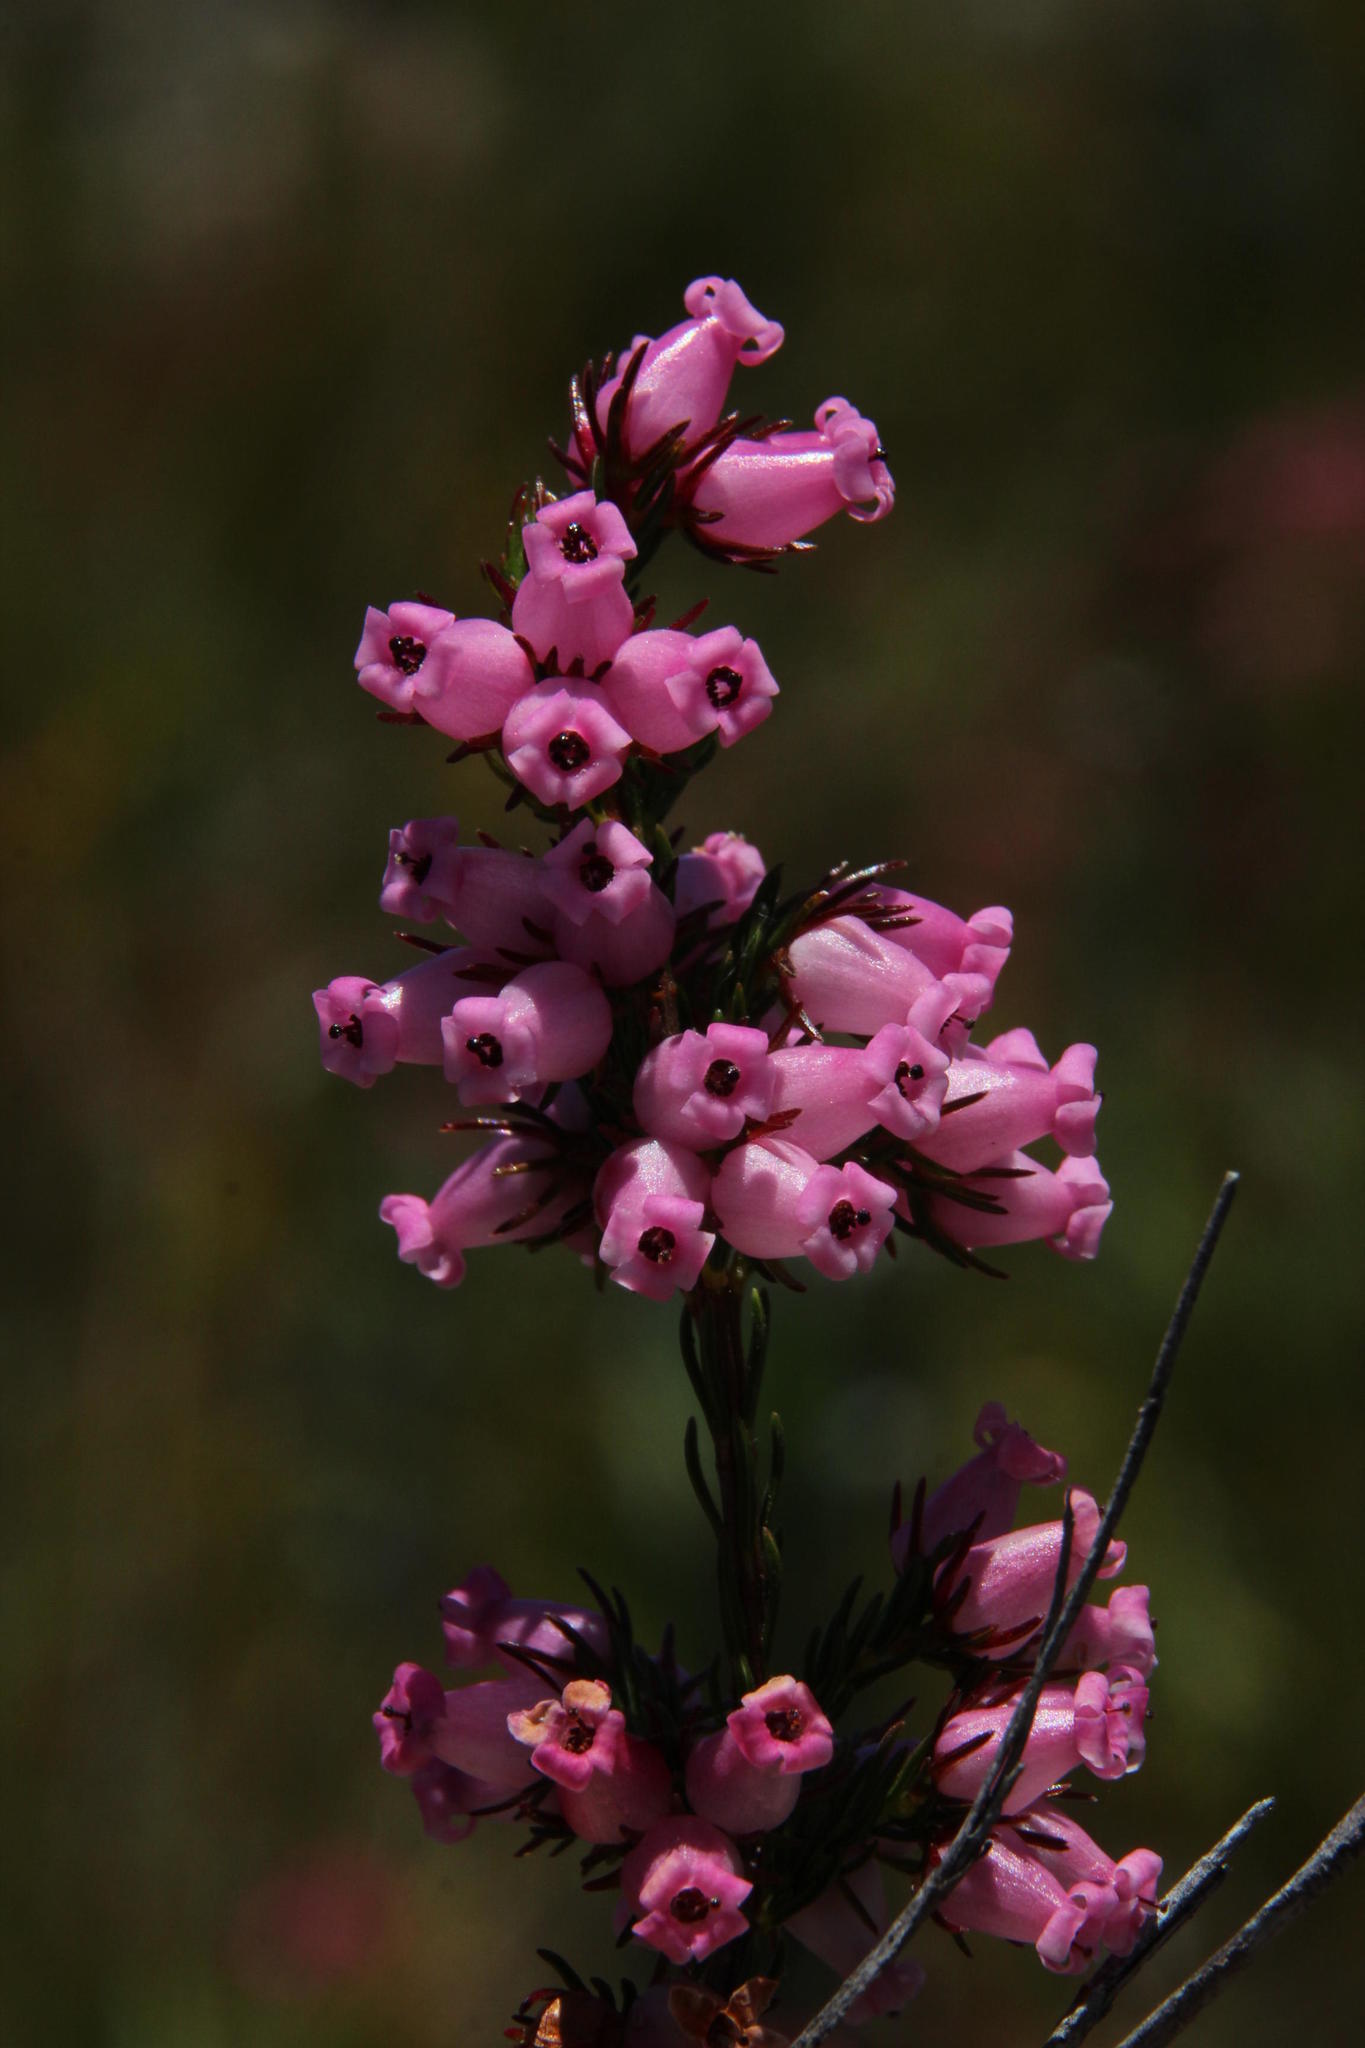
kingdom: Plantae
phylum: Tracheophyta
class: Magnoliopsida
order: Ericales
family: Ericaceae
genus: Erica
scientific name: Erica daphniflora
